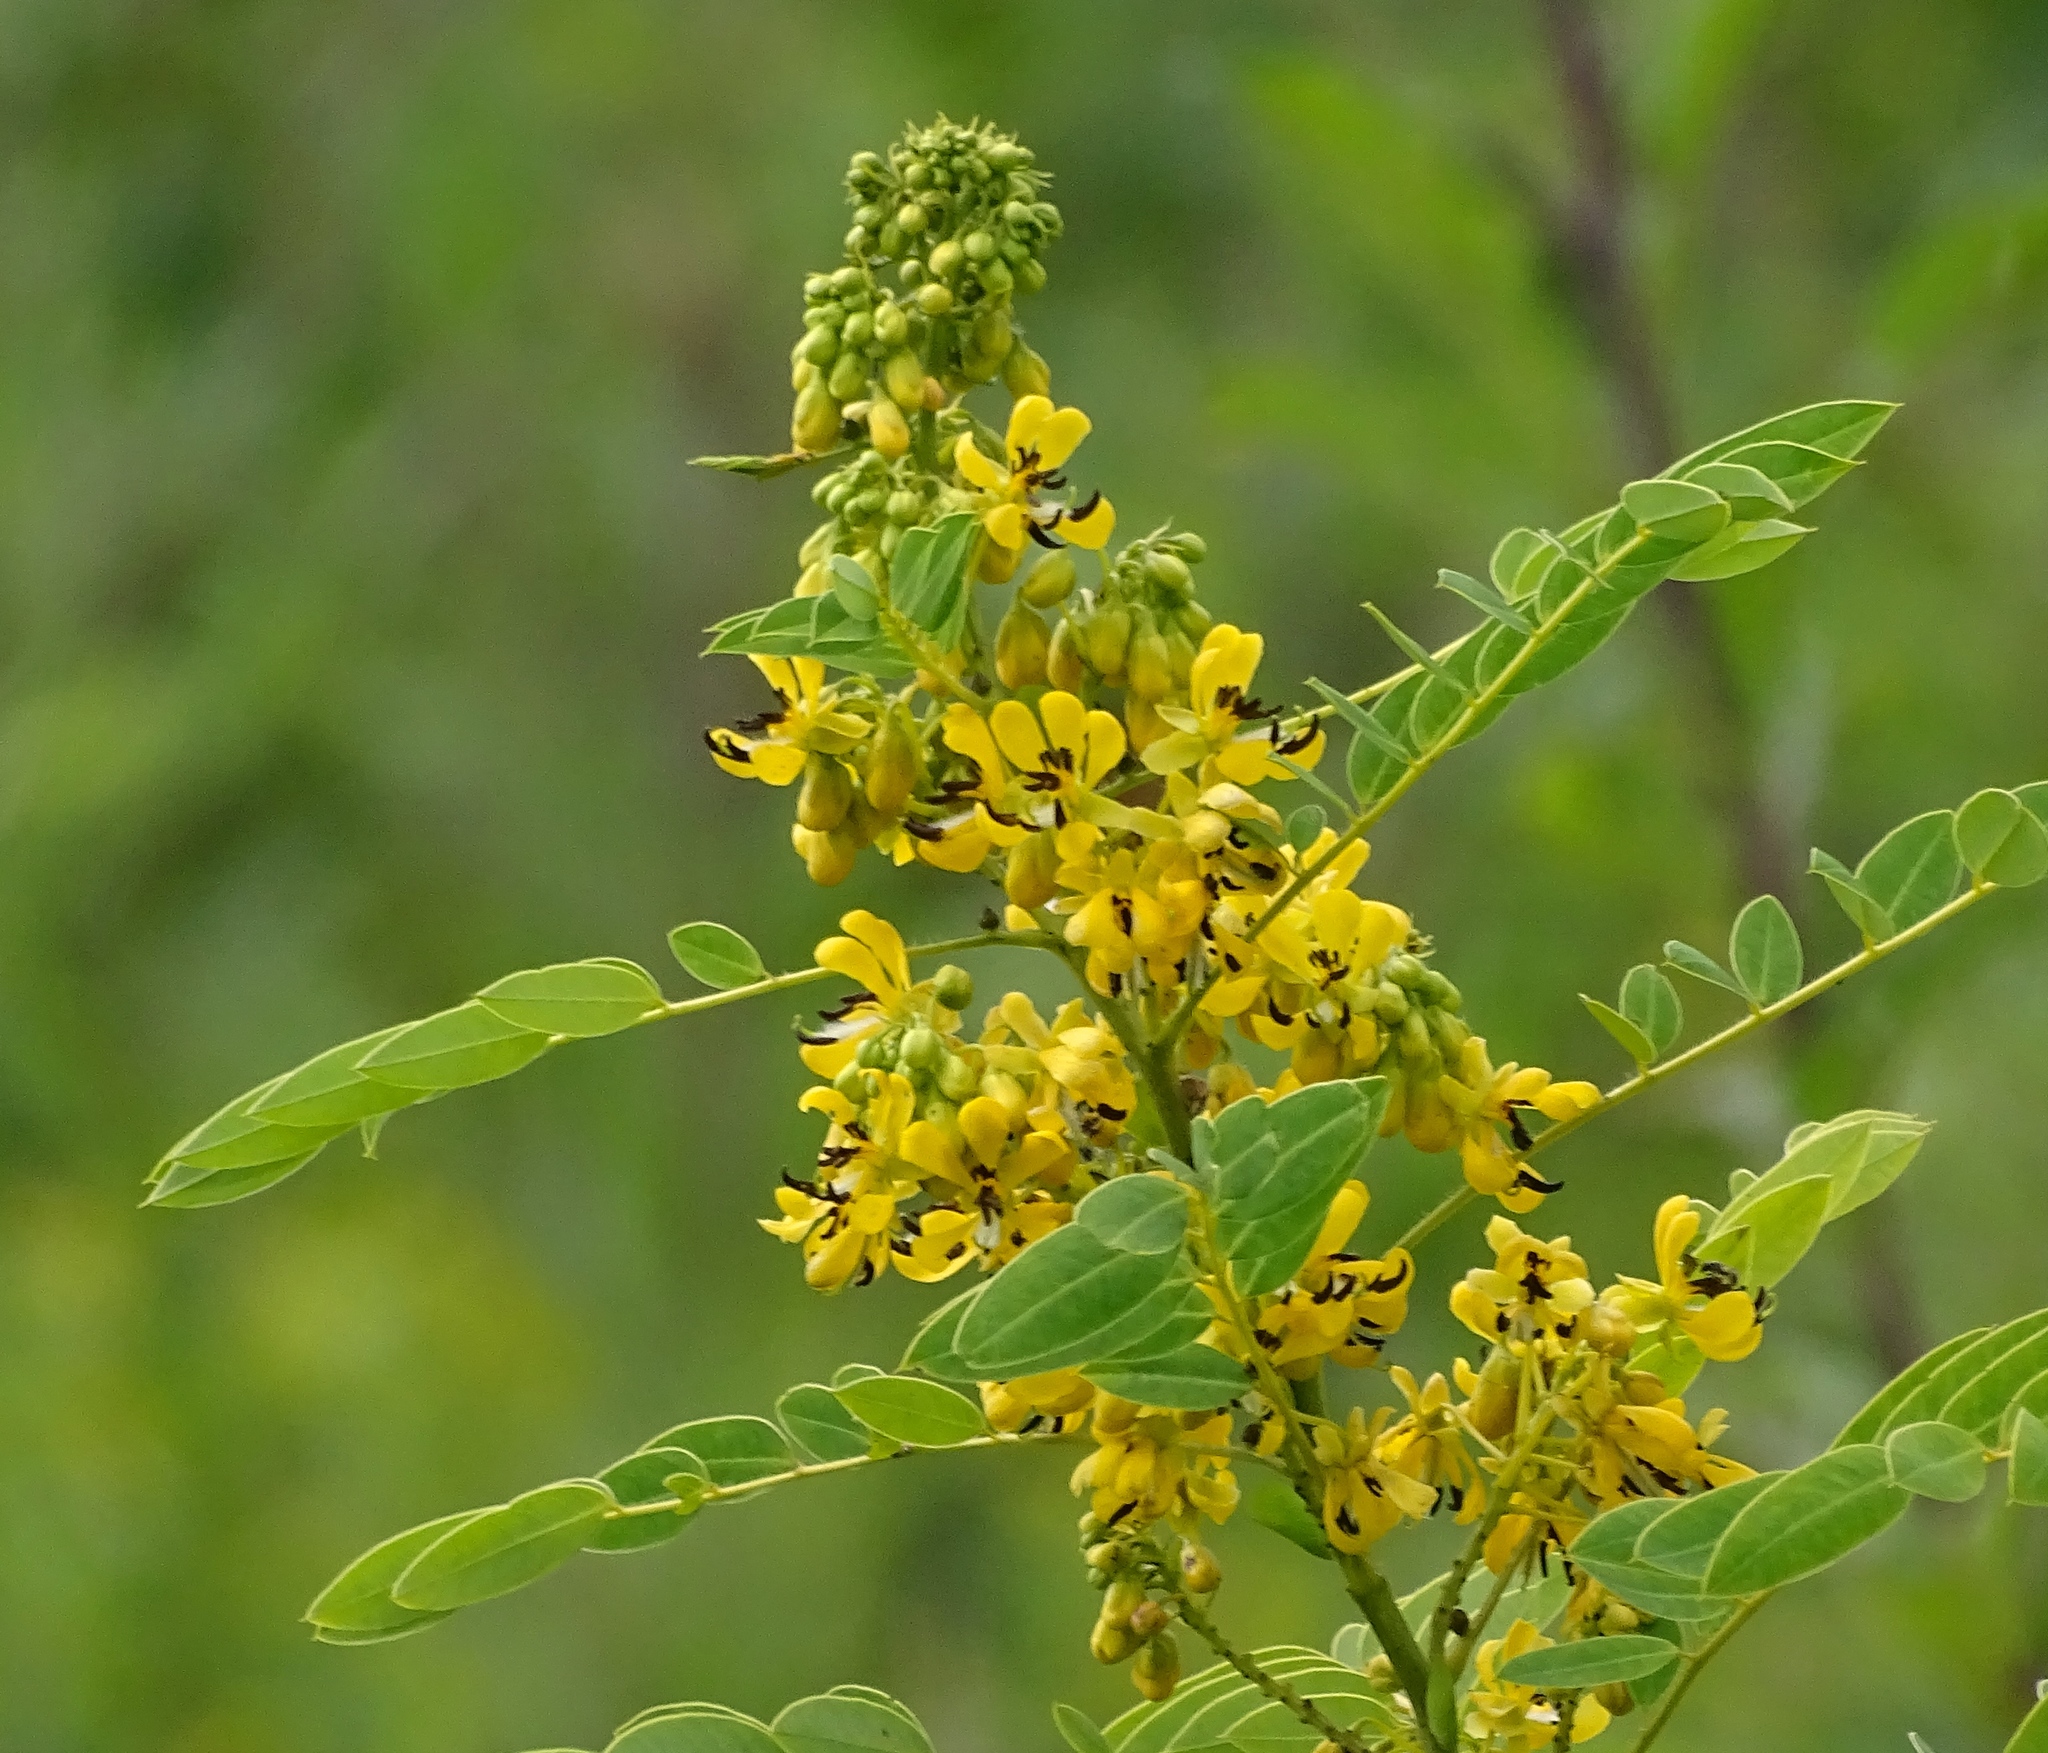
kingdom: Plantae
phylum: Tracheophyta
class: Magnoliopsida
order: Fabales
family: Fabaceae
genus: Senna
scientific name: Senna hebecarpa
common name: Wild senna
